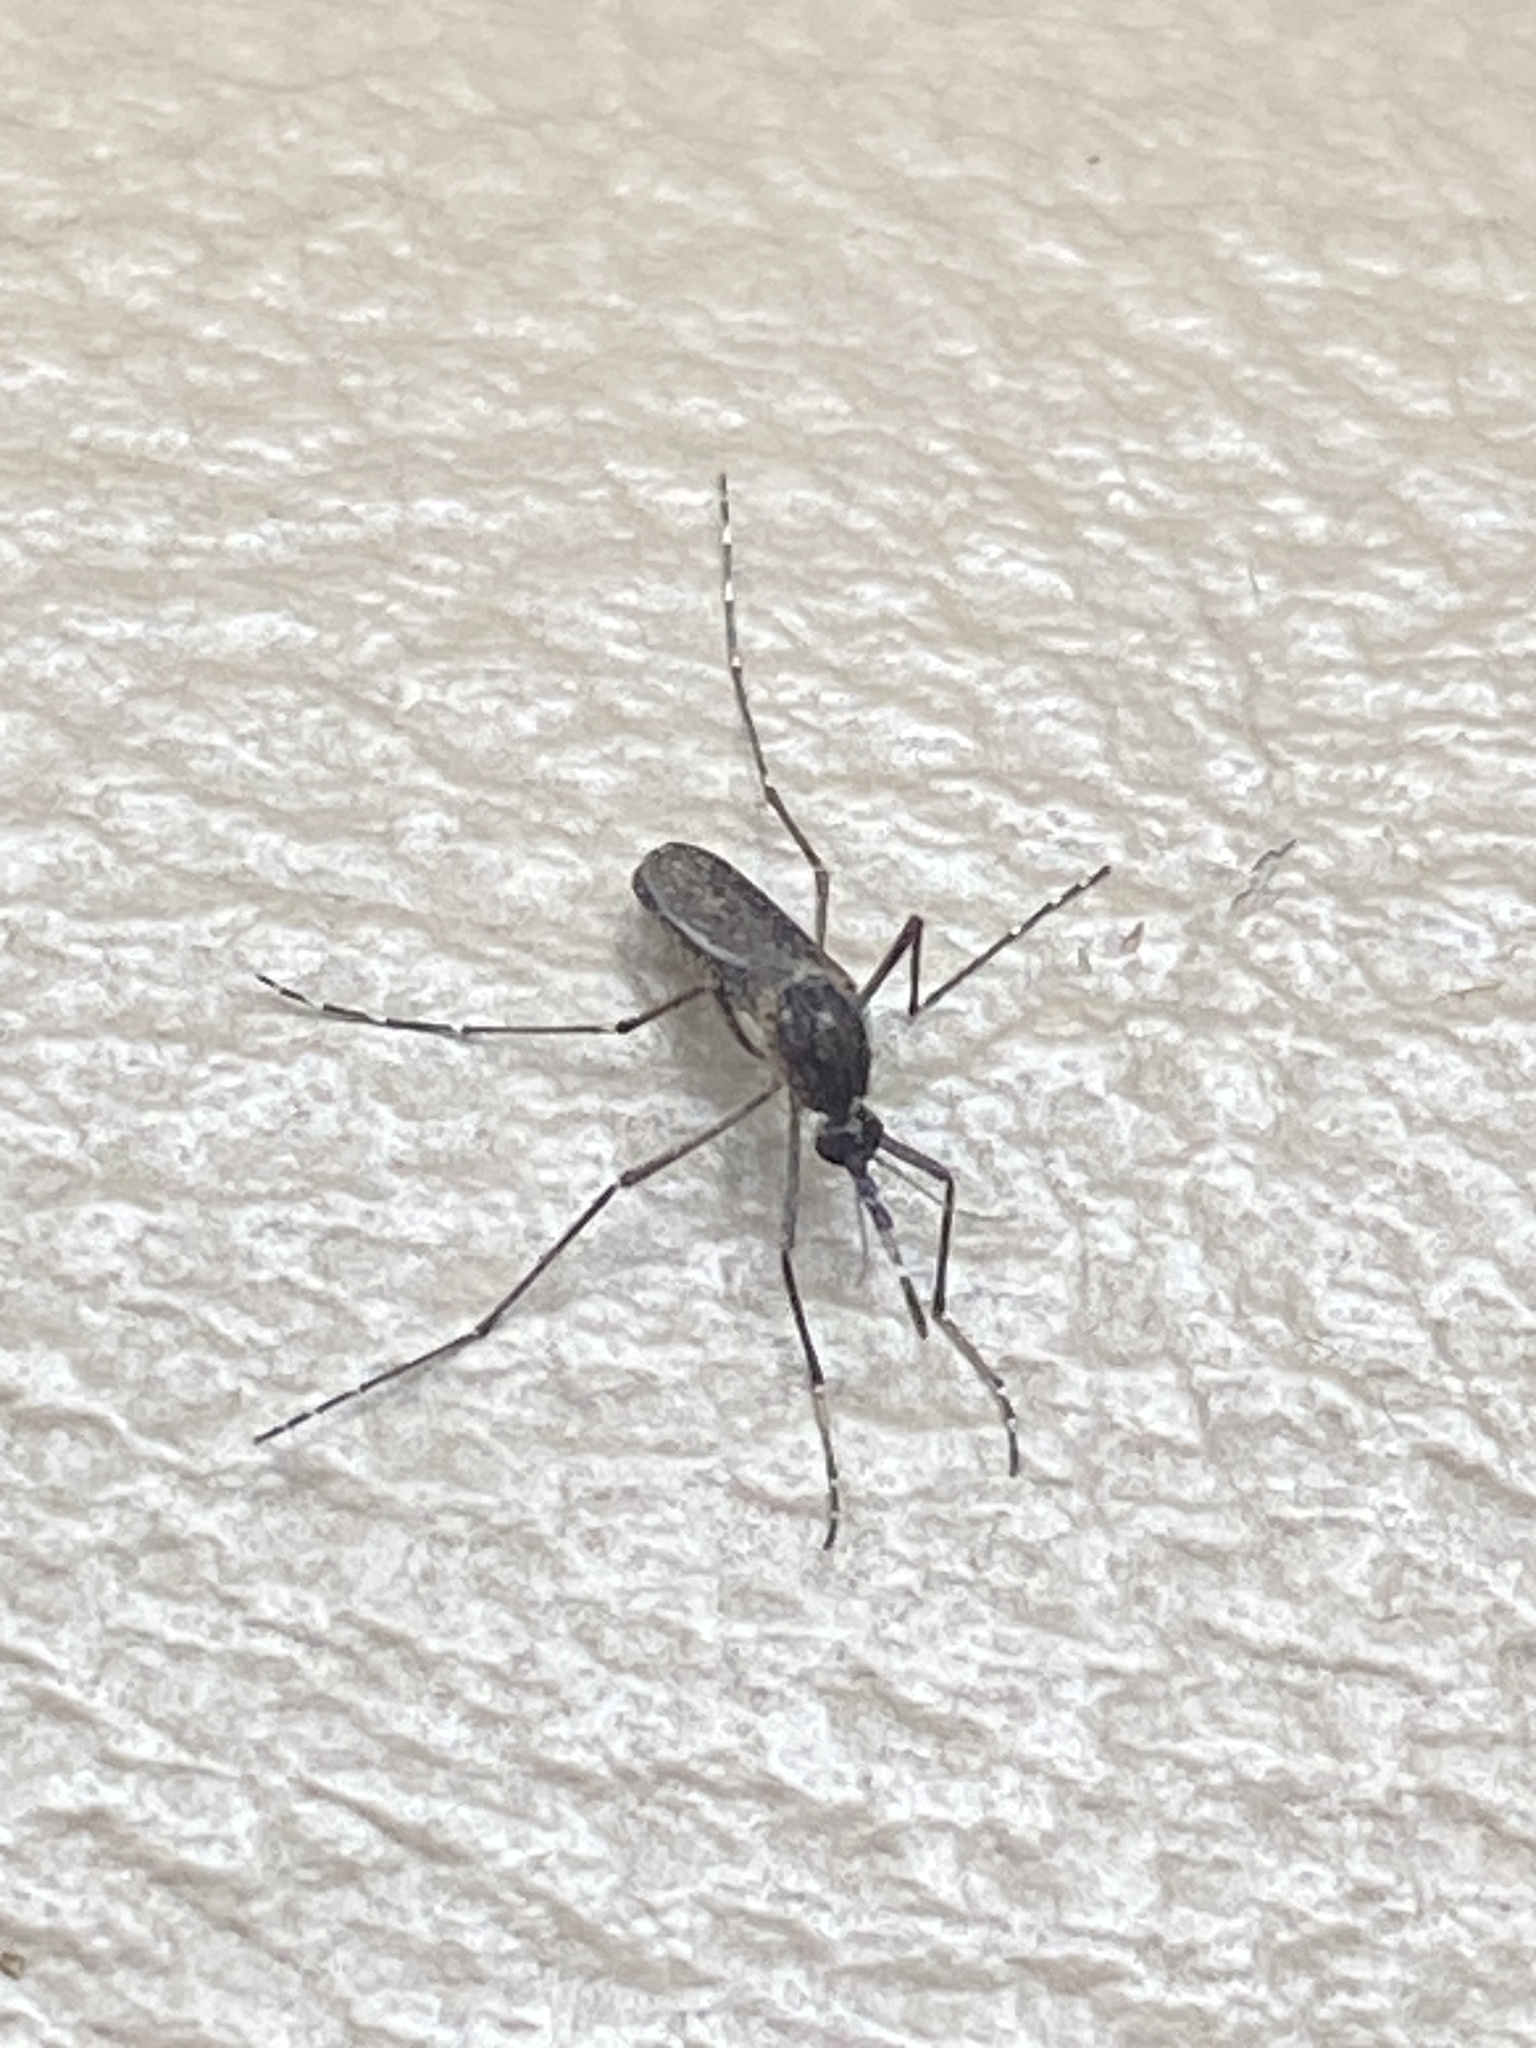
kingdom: Animalia
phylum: Arthropoda
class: Insecta
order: Diptera
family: Culicidae
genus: Mansonia
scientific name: Mansonia titillans
